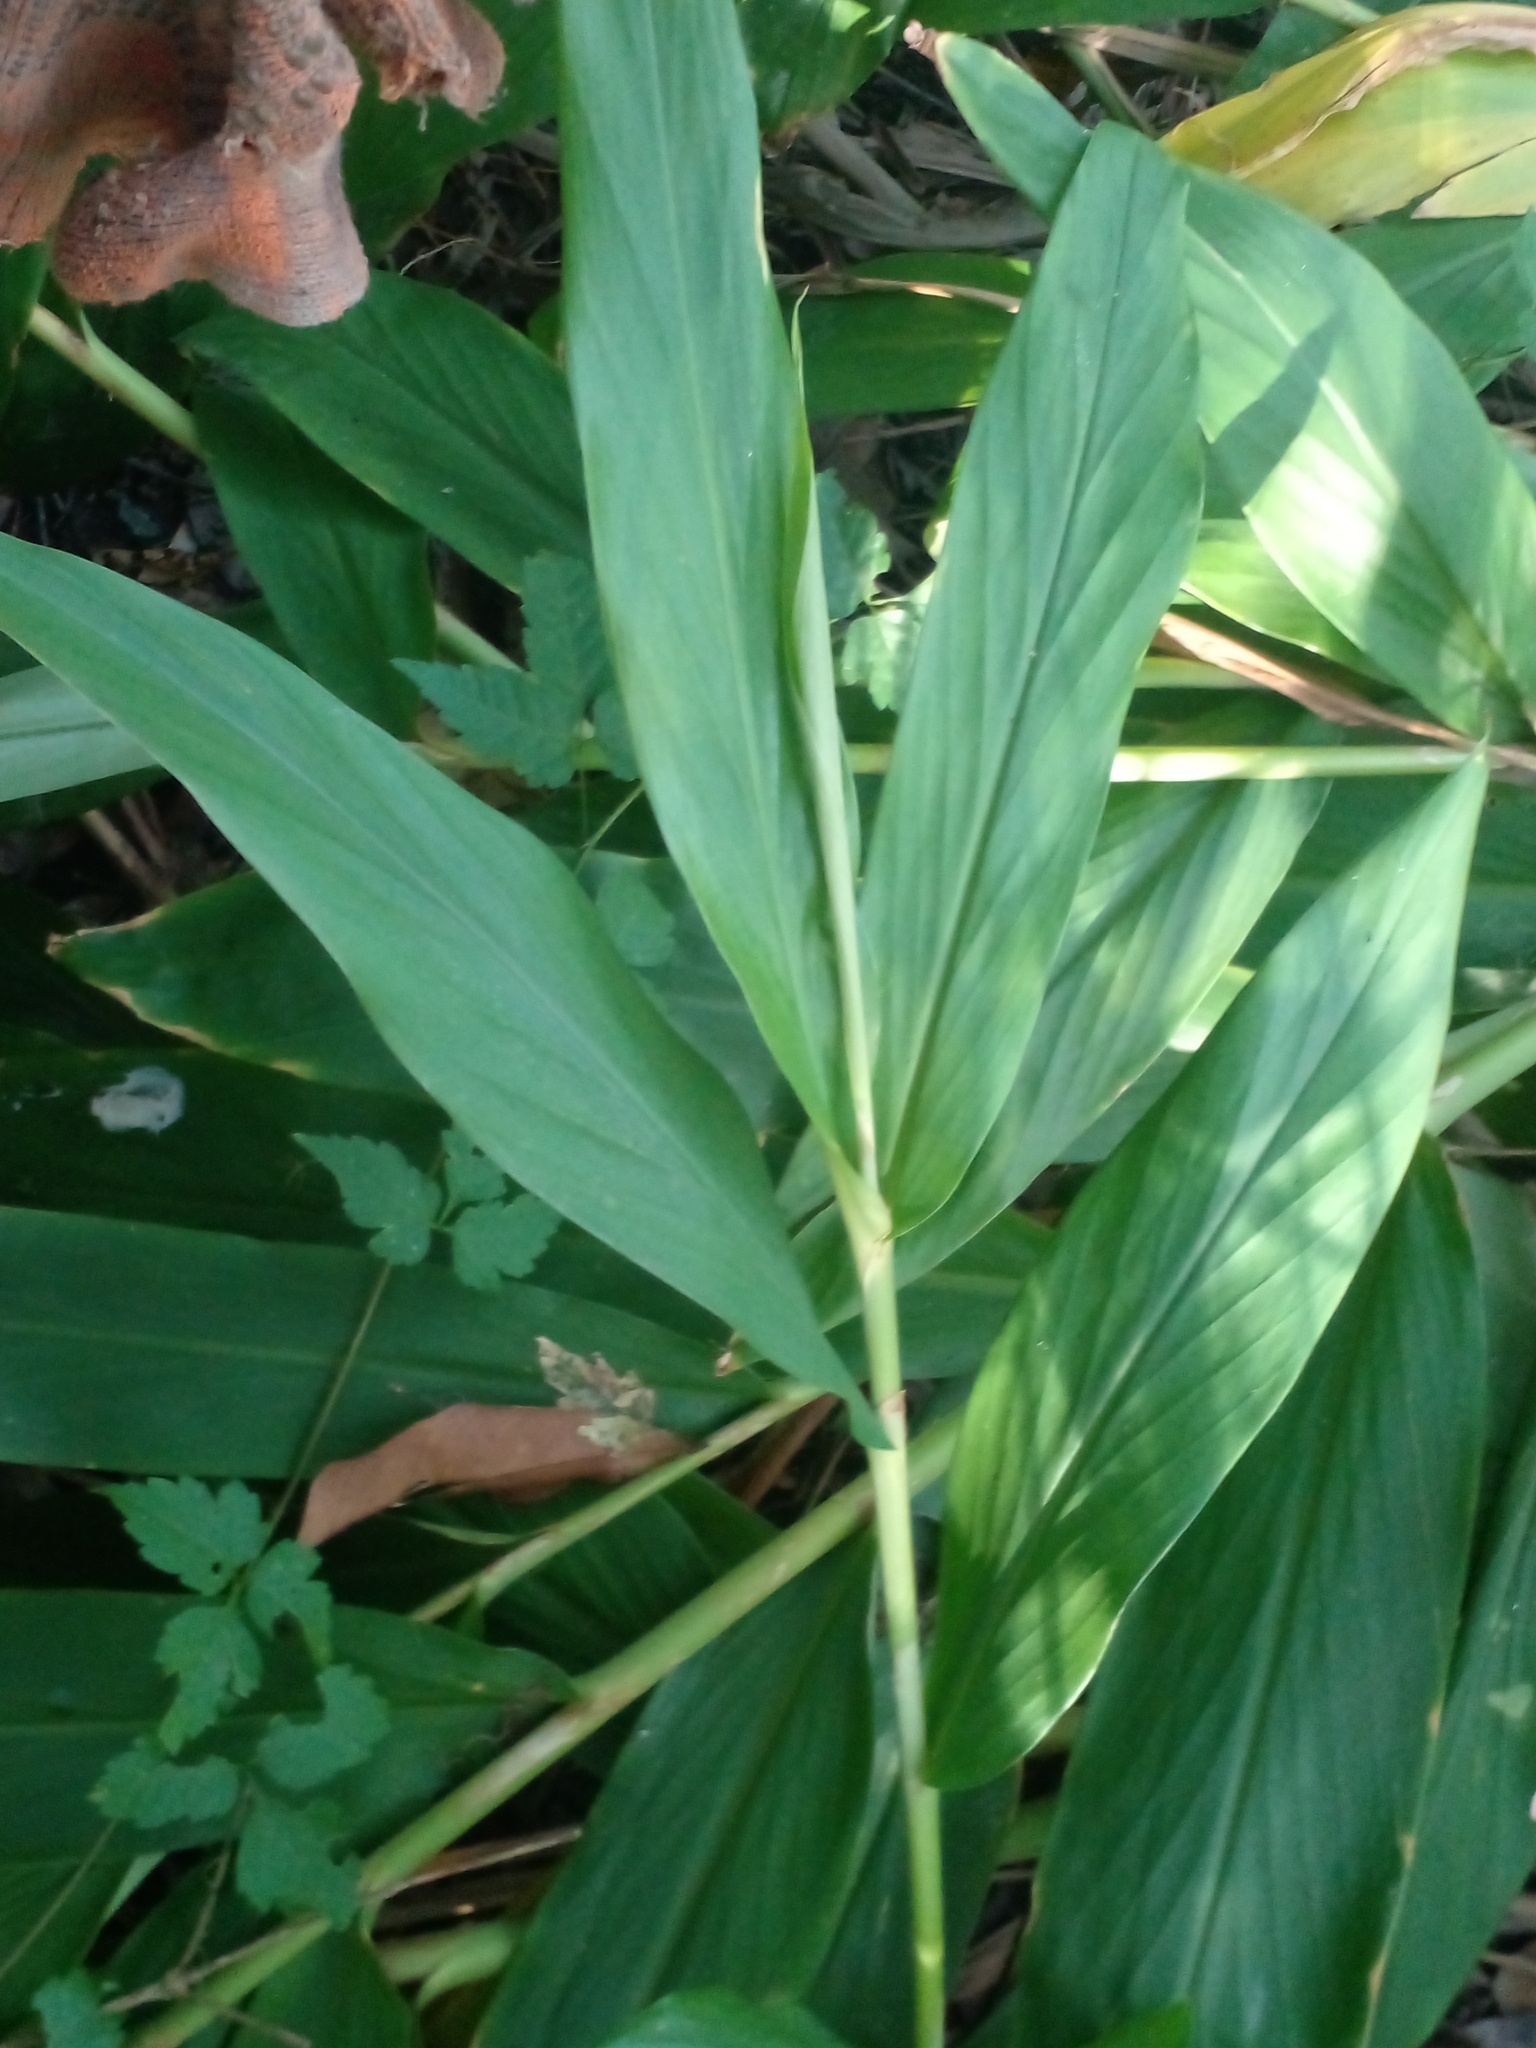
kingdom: Plantae
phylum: Tracheophyta
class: Liliopsida
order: Zingiberales
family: Zingiberaceae
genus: Hedychium
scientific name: Hedychium coronarium
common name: White garland-lily
